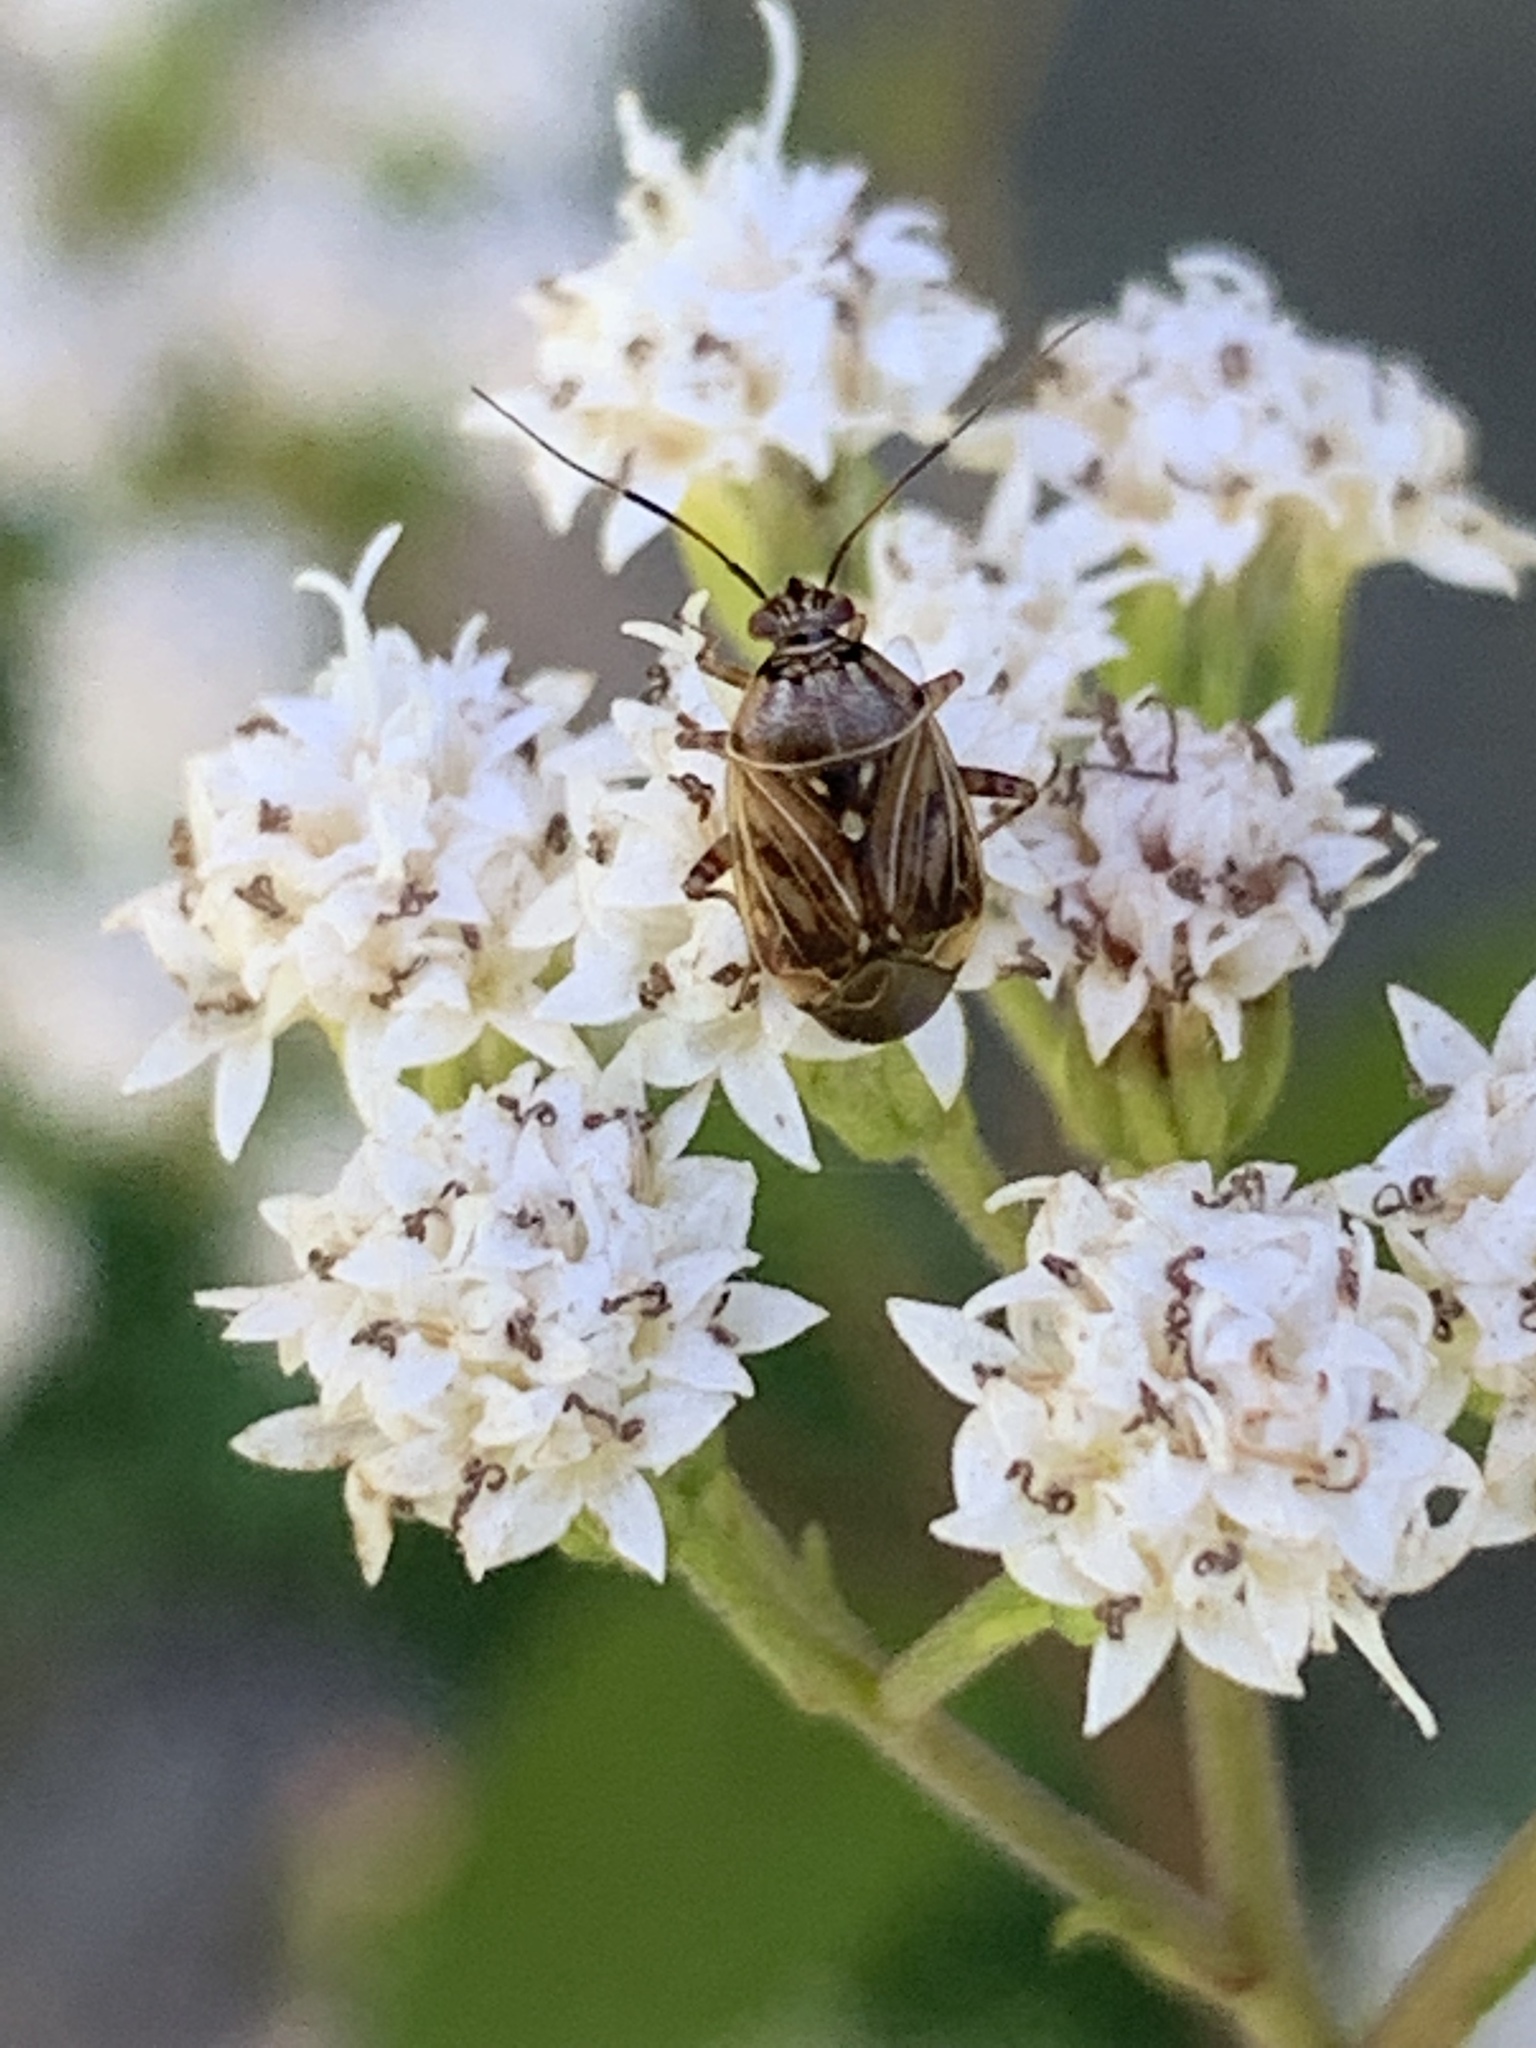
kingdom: Animalia
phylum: Arthropoda
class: Insecta
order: Hemiptera
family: Miridae
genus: Lygus
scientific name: Lygus lineolaris
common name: North american tarnished plant bug
